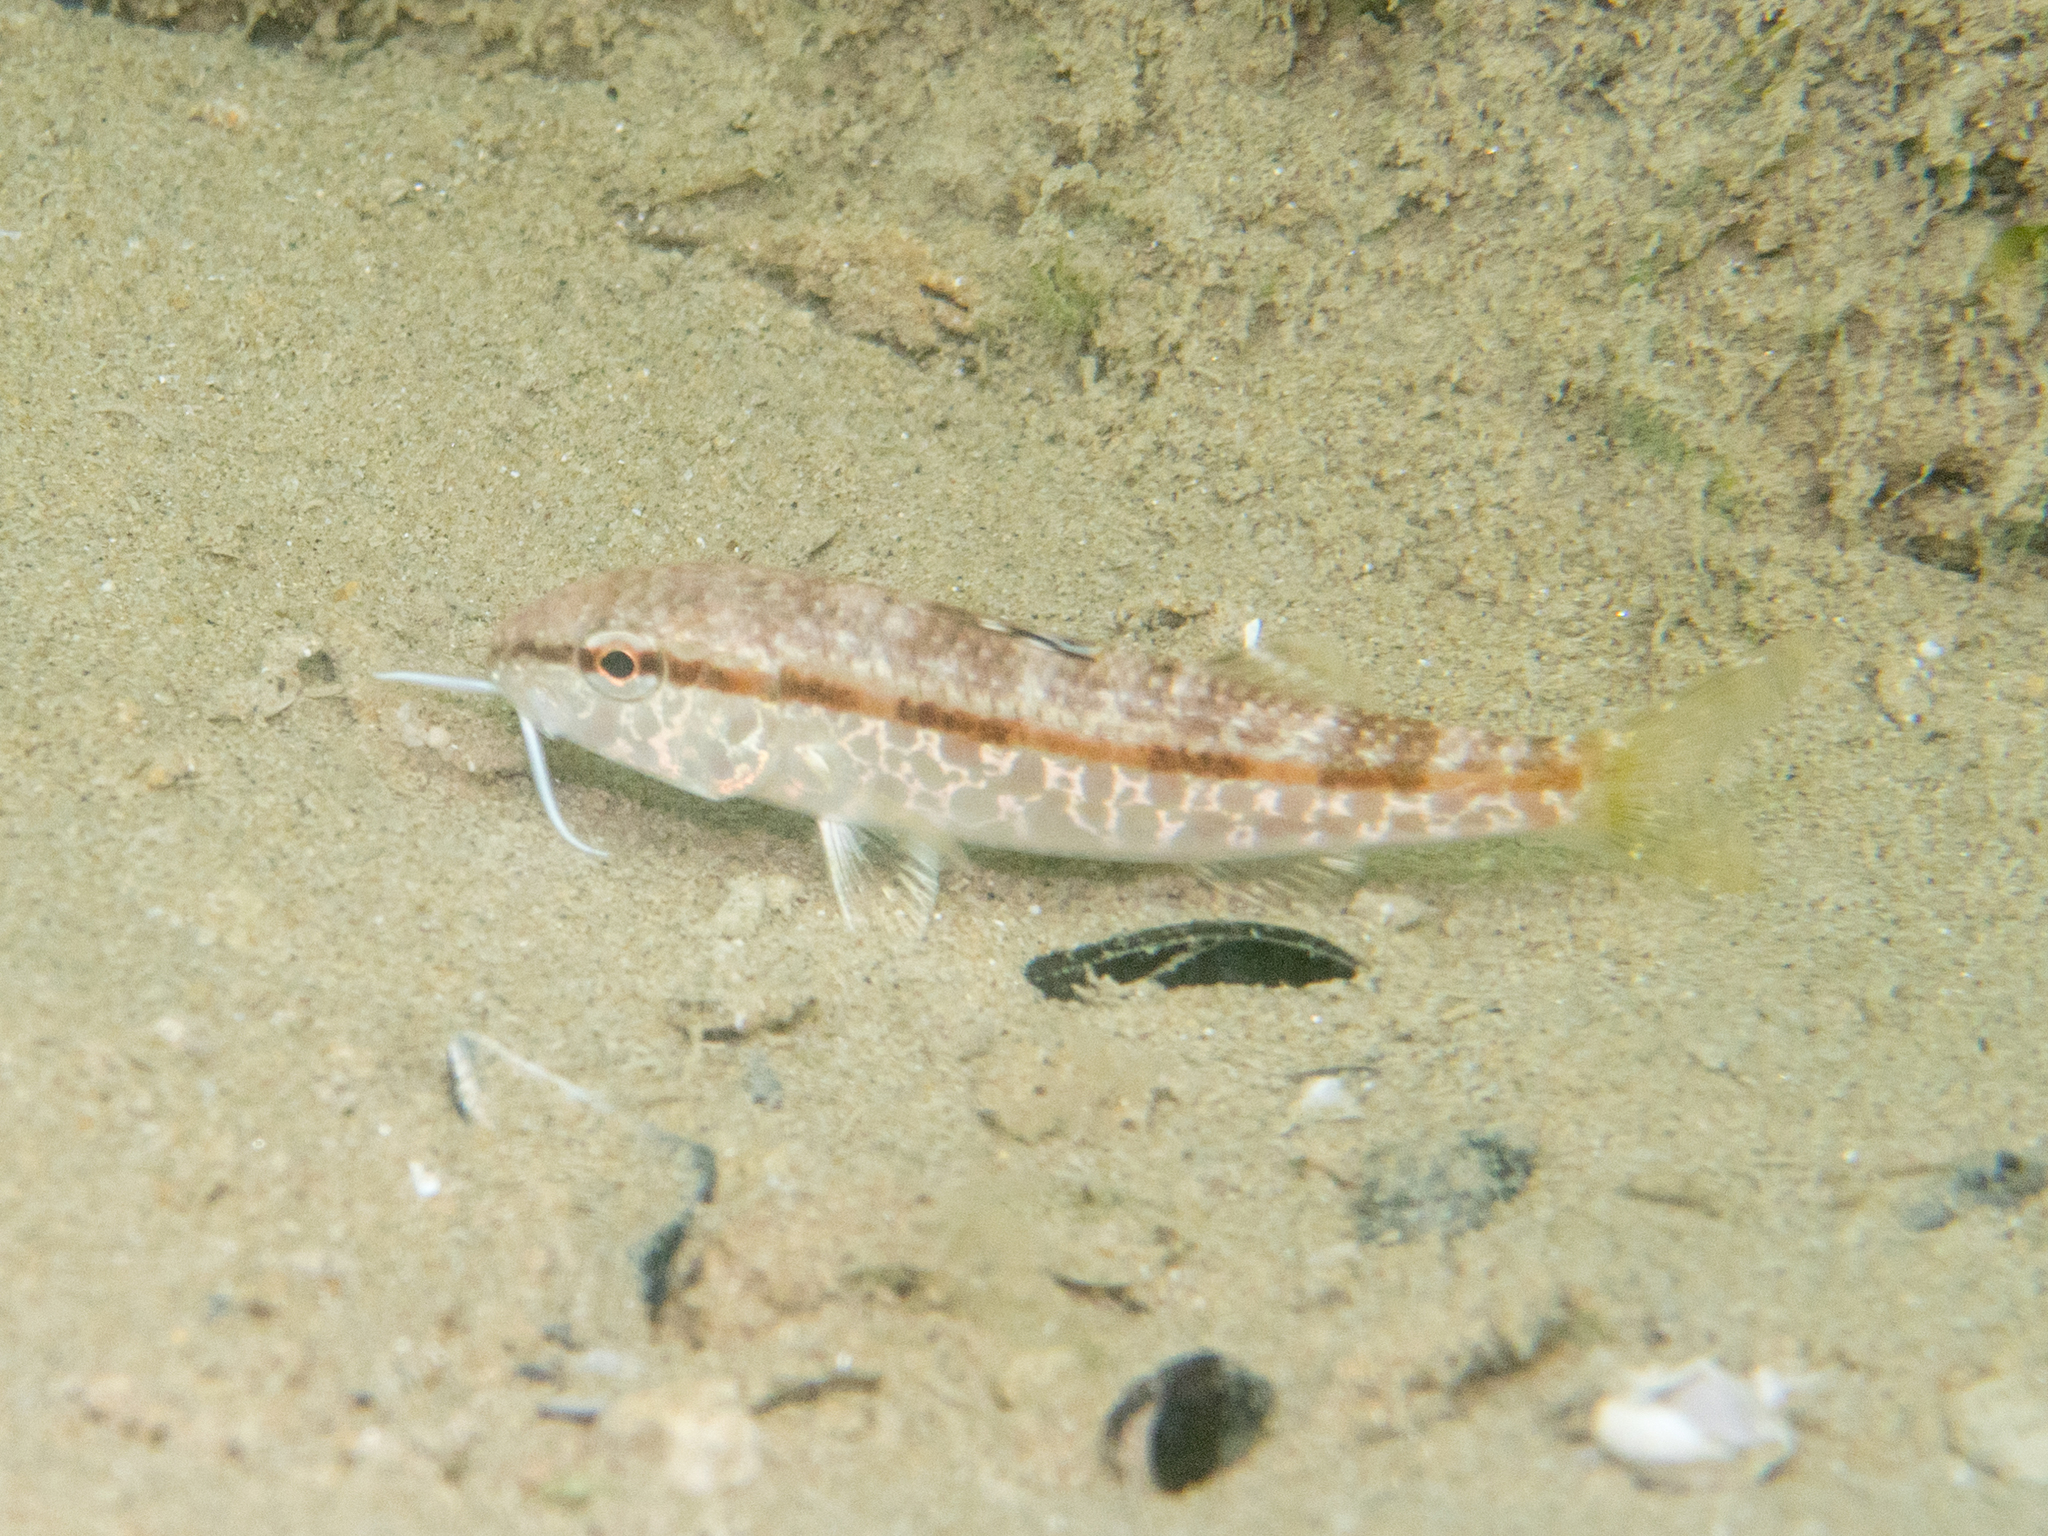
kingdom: Animalia
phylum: Chordata
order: Perciformes
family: Mullidae
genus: Mullus
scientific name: Mullus surmuletus
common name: Red mullet
